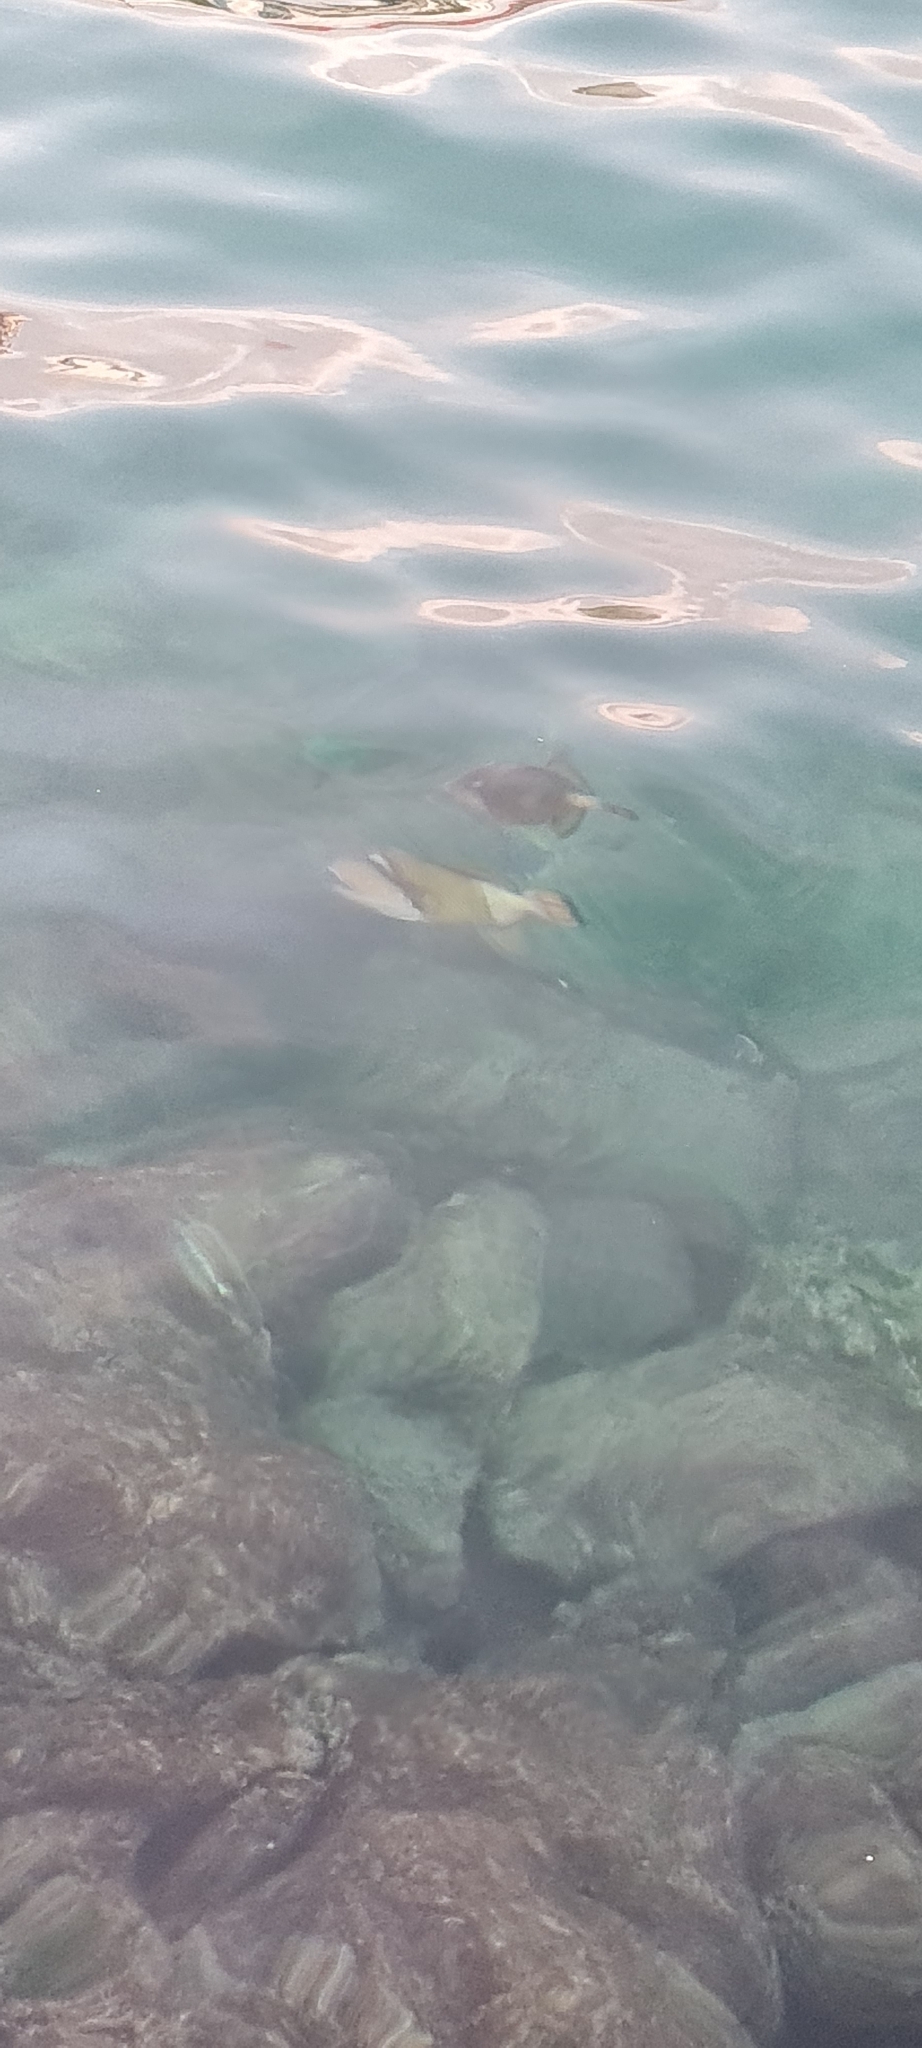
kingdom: Animalia
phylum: Chordata
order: Tetraodontiformes
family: Balistidae
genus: Balistoides
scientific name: Balistoides viridescens
